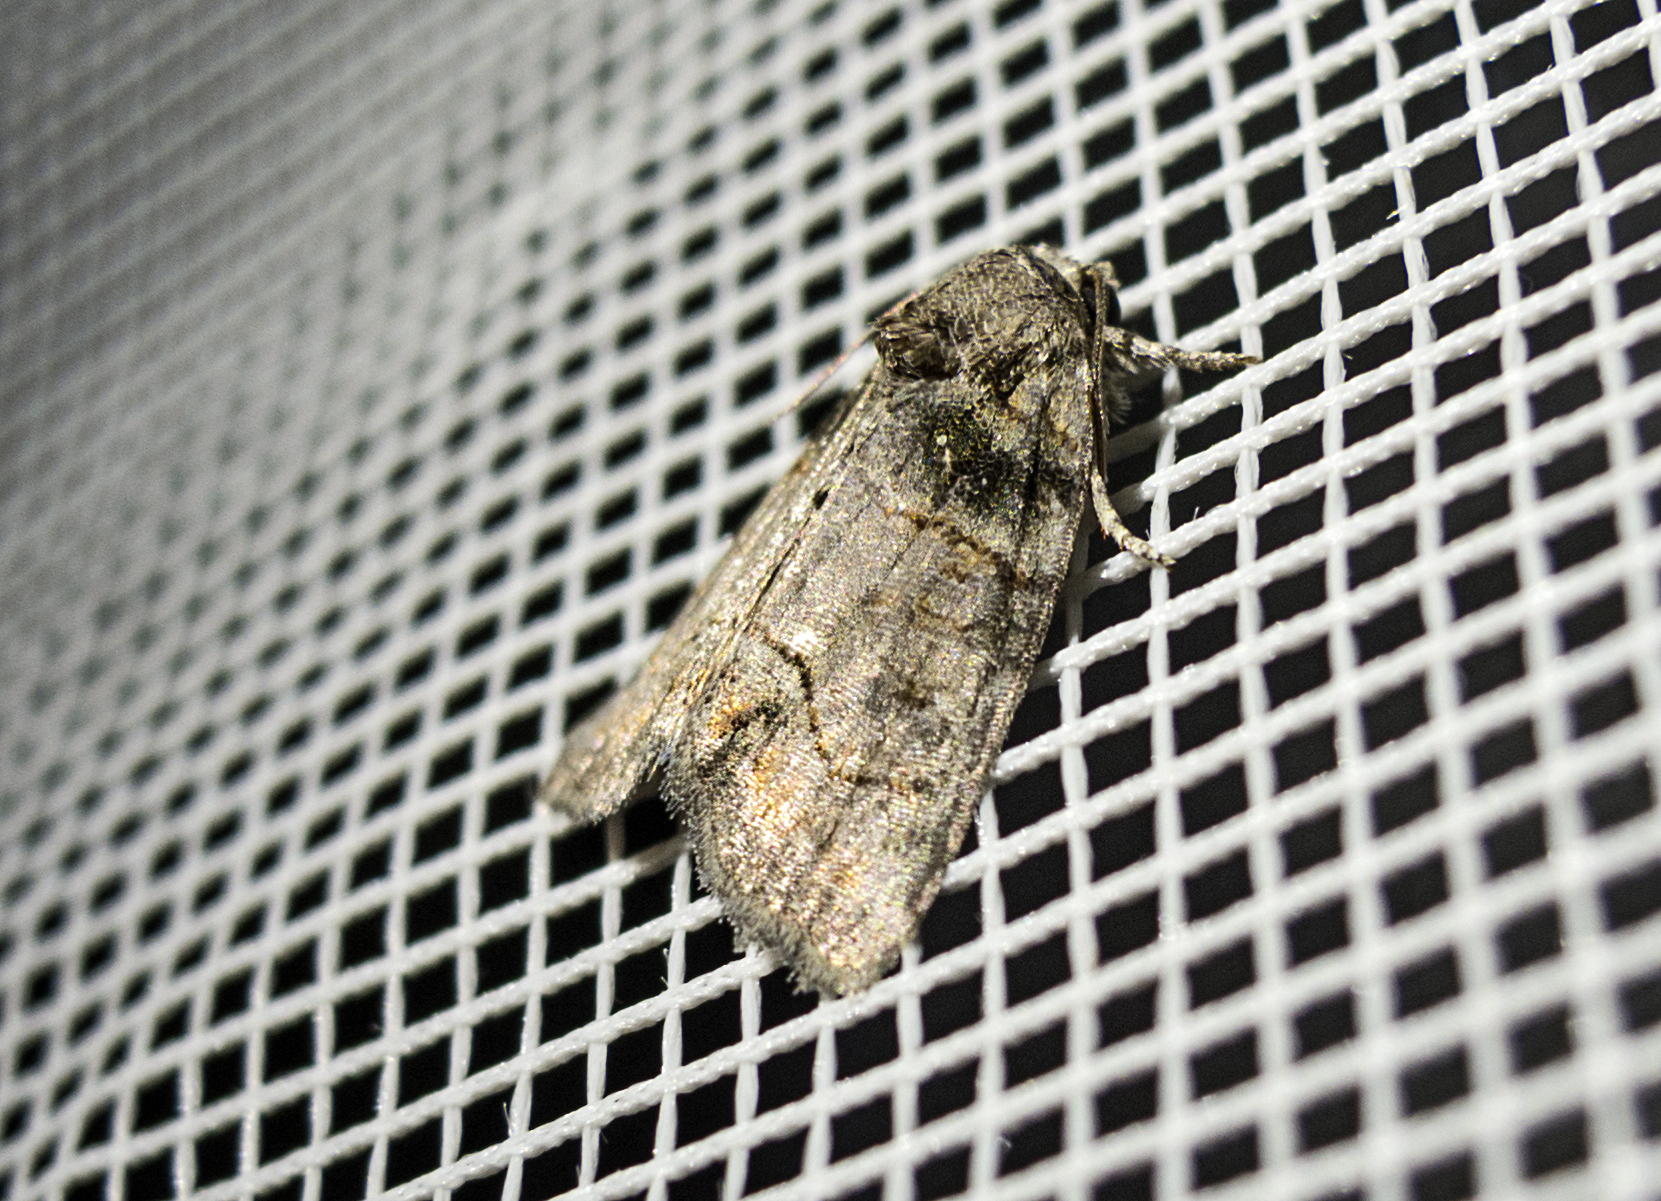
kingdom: Animalia
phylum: Arthropoda
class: Insecta
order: Lepidoptera
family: Noctuidae
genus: Bryophila
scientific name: Bryophila tephrocharis
